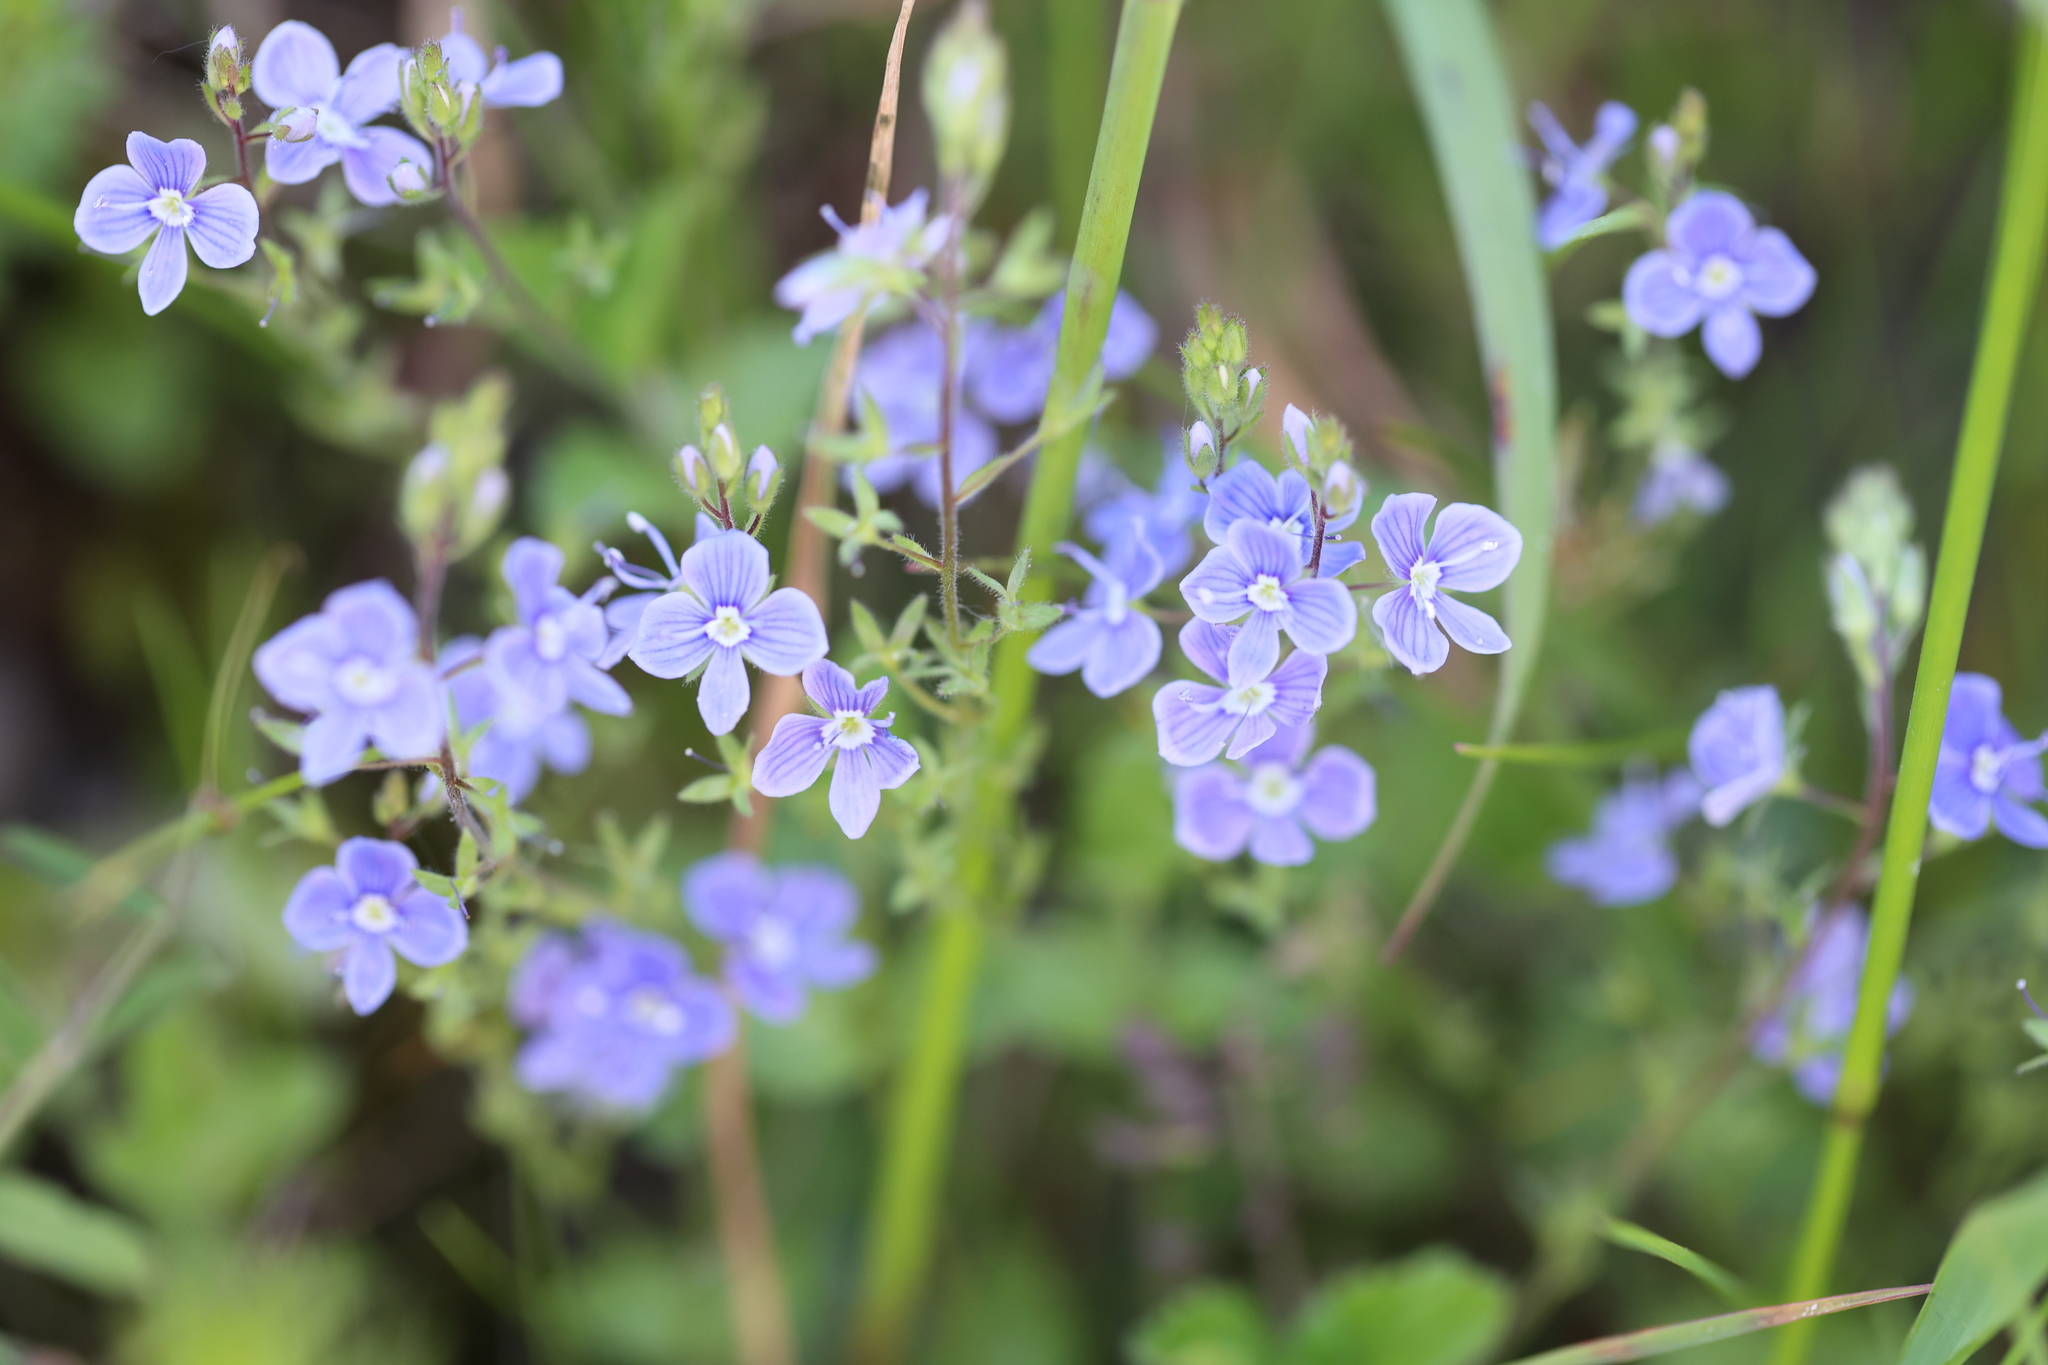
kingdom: Plantae
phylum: Tracheophyta
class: Magnoliopsida
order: Lamiales
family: Plantaginaceae
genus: Veronica
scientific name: Veronica chamaedrys
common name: Germander speedwell
